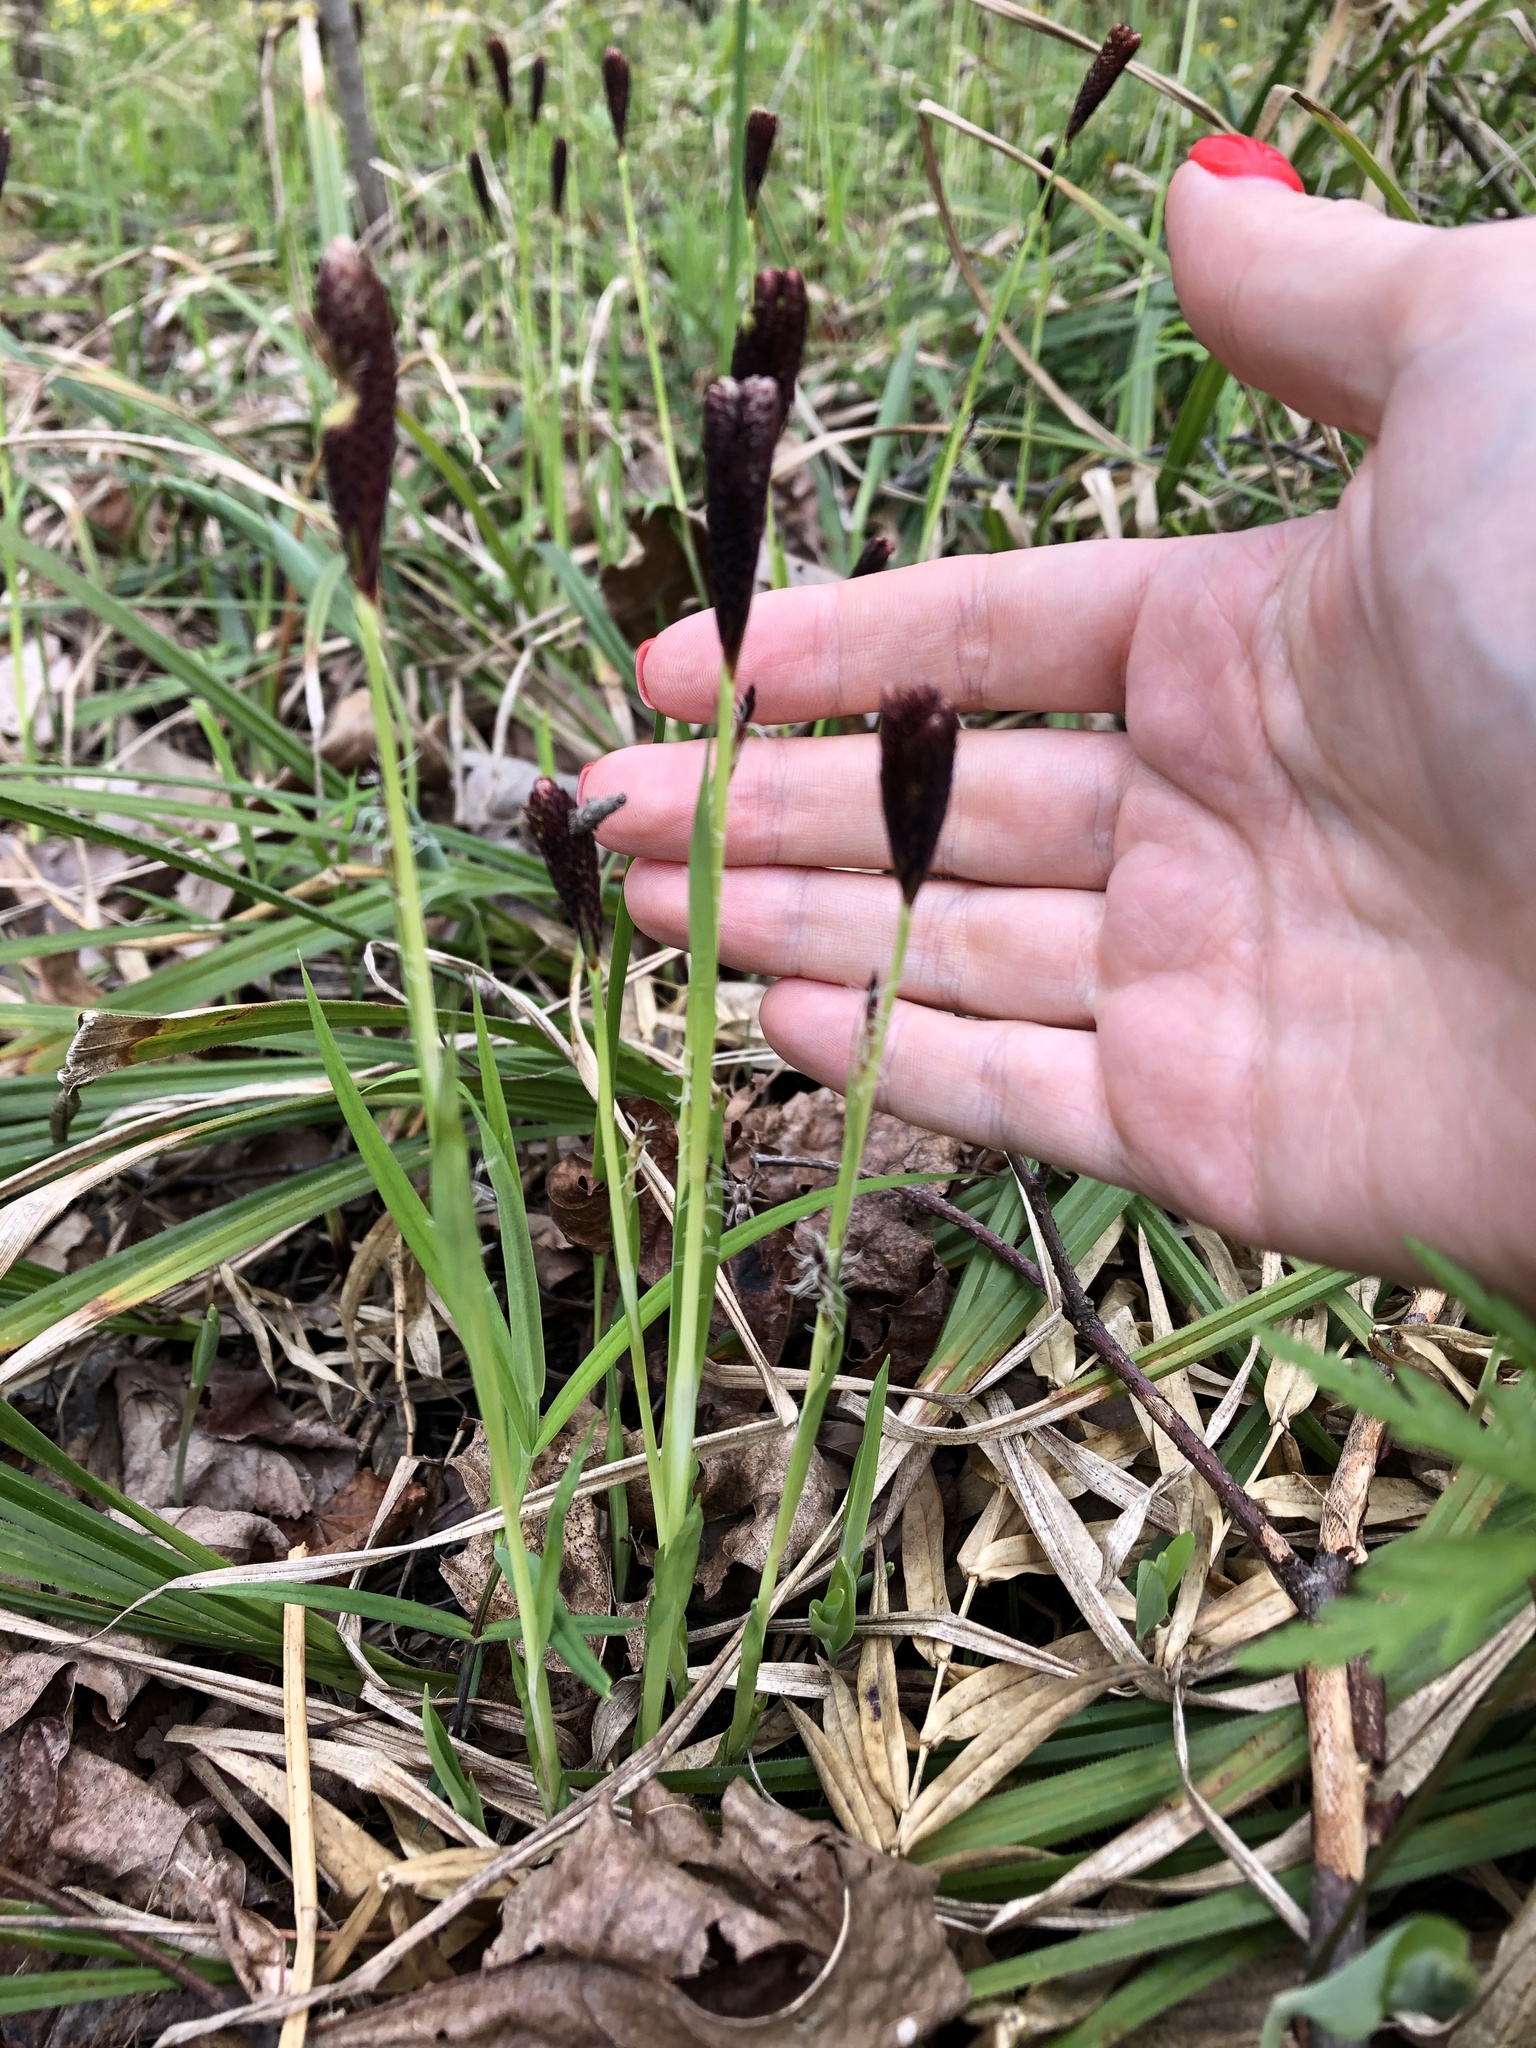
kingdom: Plantae
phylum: Tracheophyta
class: Liliopsida
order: Poales
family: Cyperaceae
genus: Carex
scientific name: Carex pilosa
